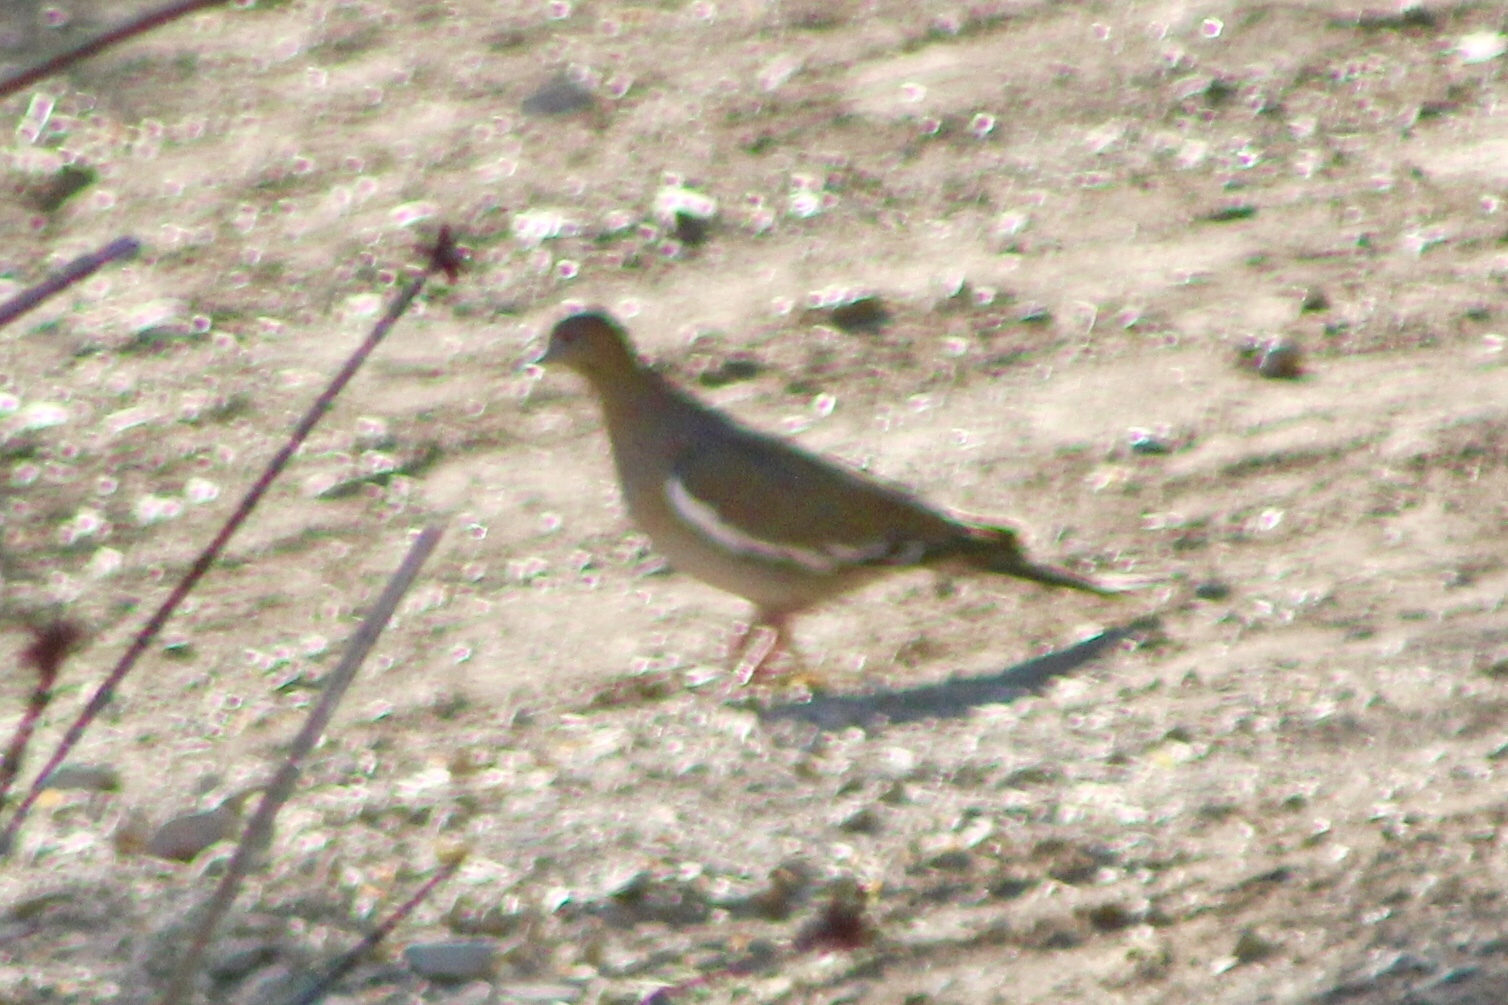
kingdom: Animalia
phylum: Chordata
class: Aves
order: Columbiformes
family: Columbidae
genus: Zenaida
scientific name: Zenaida asiatica
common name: White-winged dove
